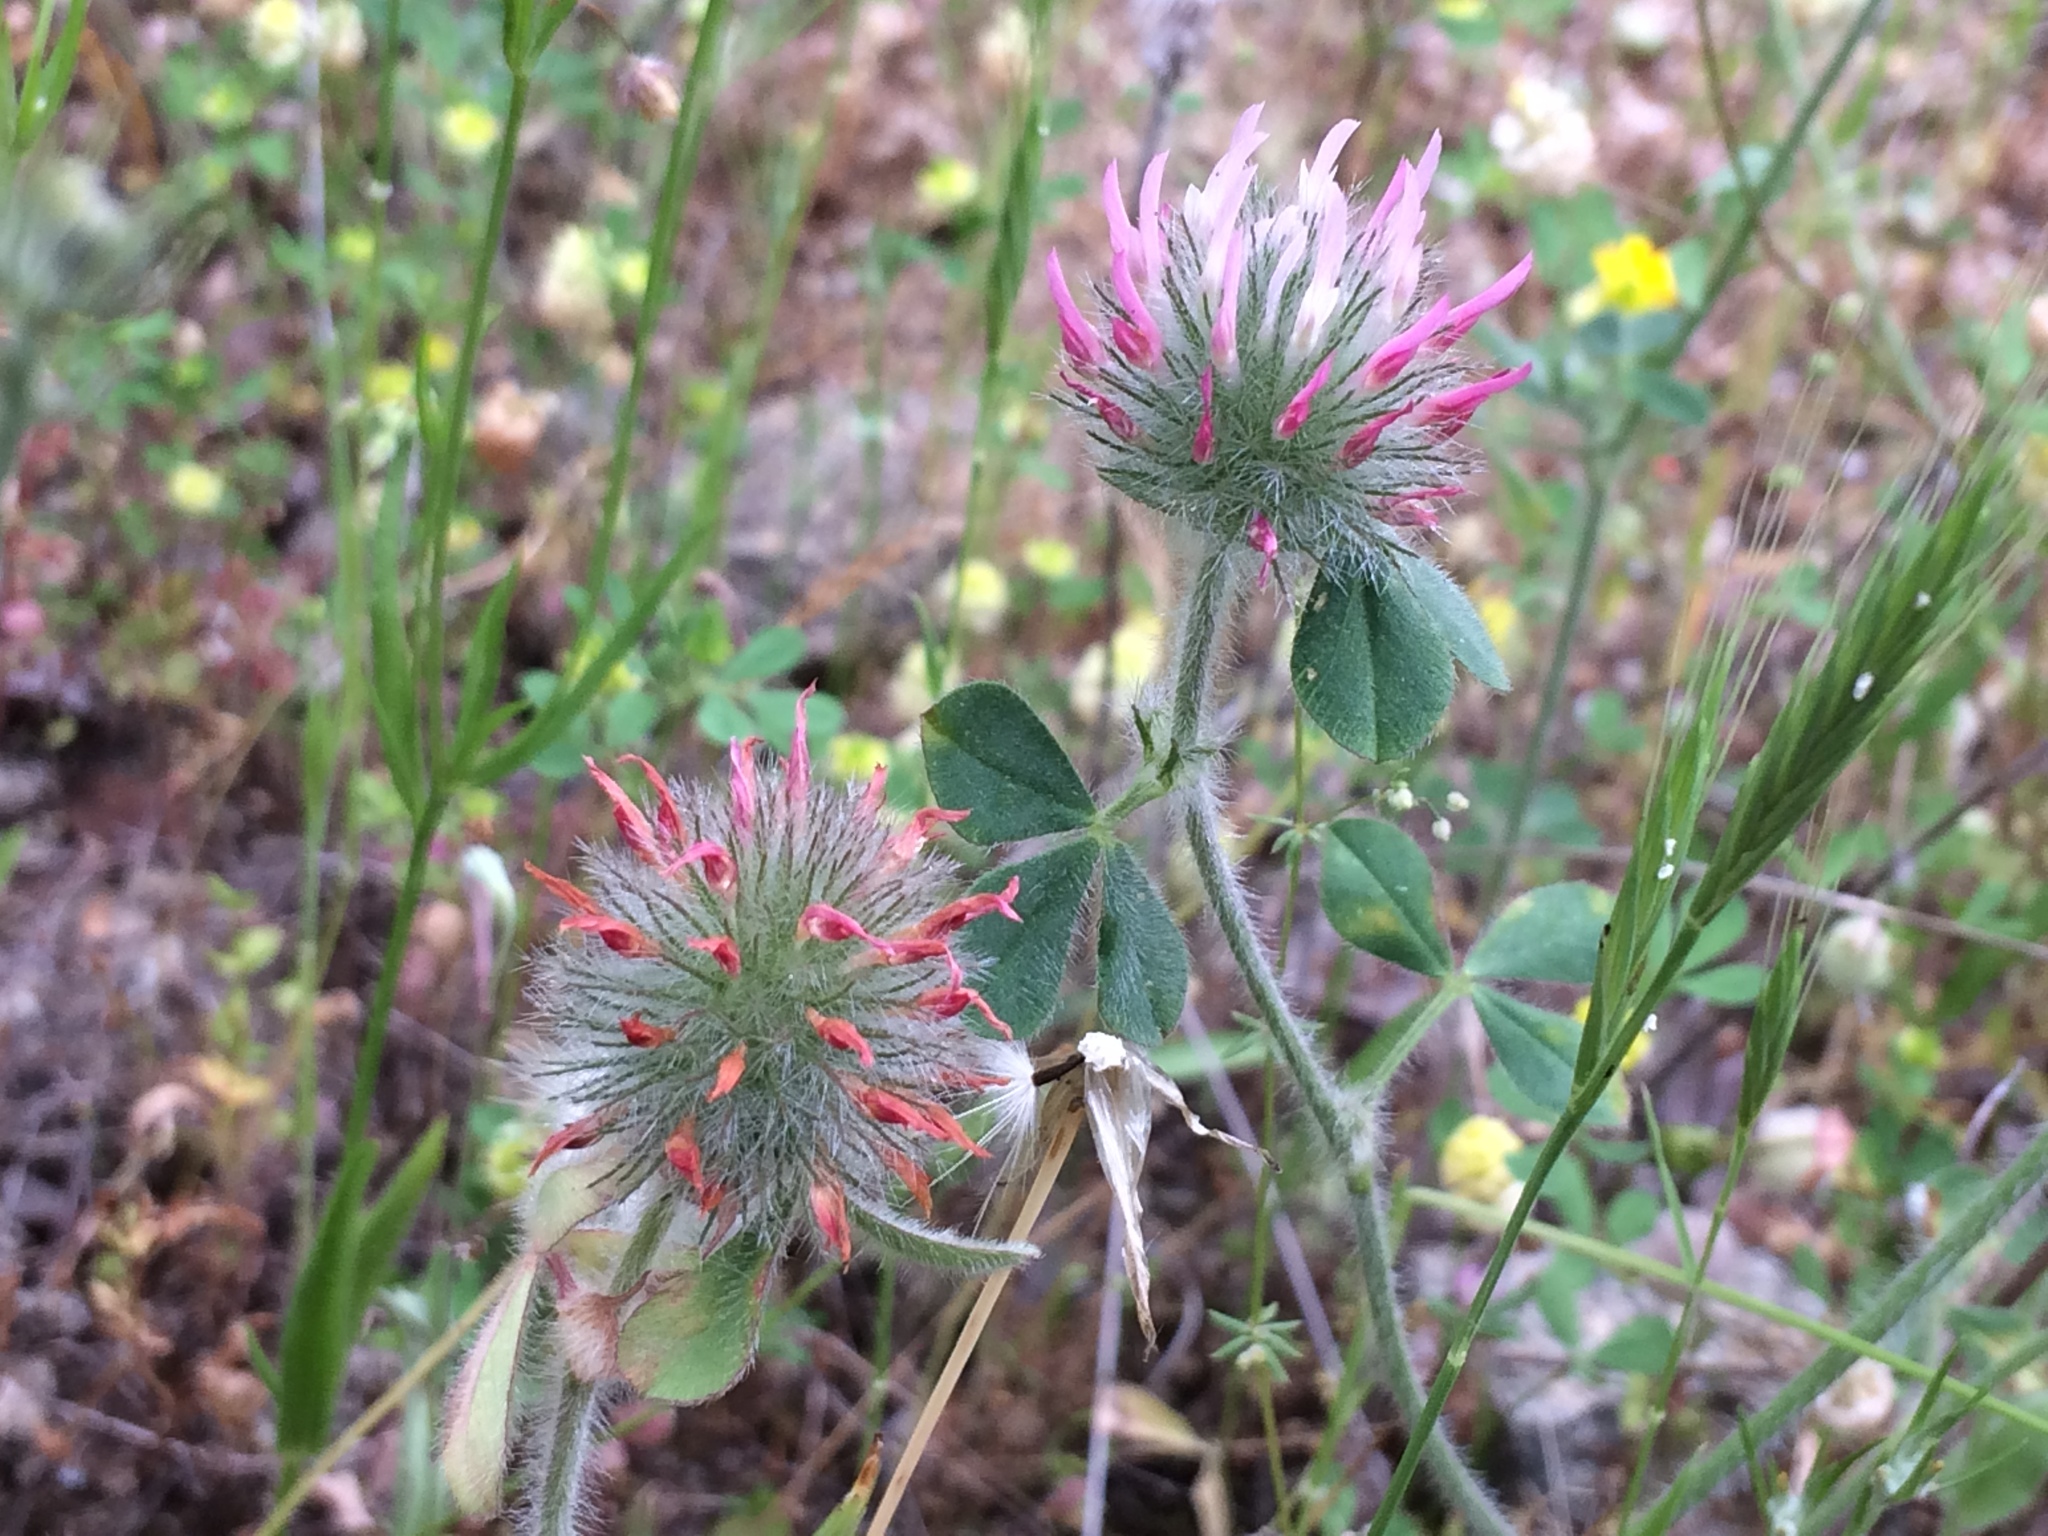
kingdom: Plantae
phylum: Tracheophyta
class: Magnoliopsida
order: Fabales
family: Fabaceae
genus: Trifolium
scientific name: Trifolium hirtum
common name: Rose clover
